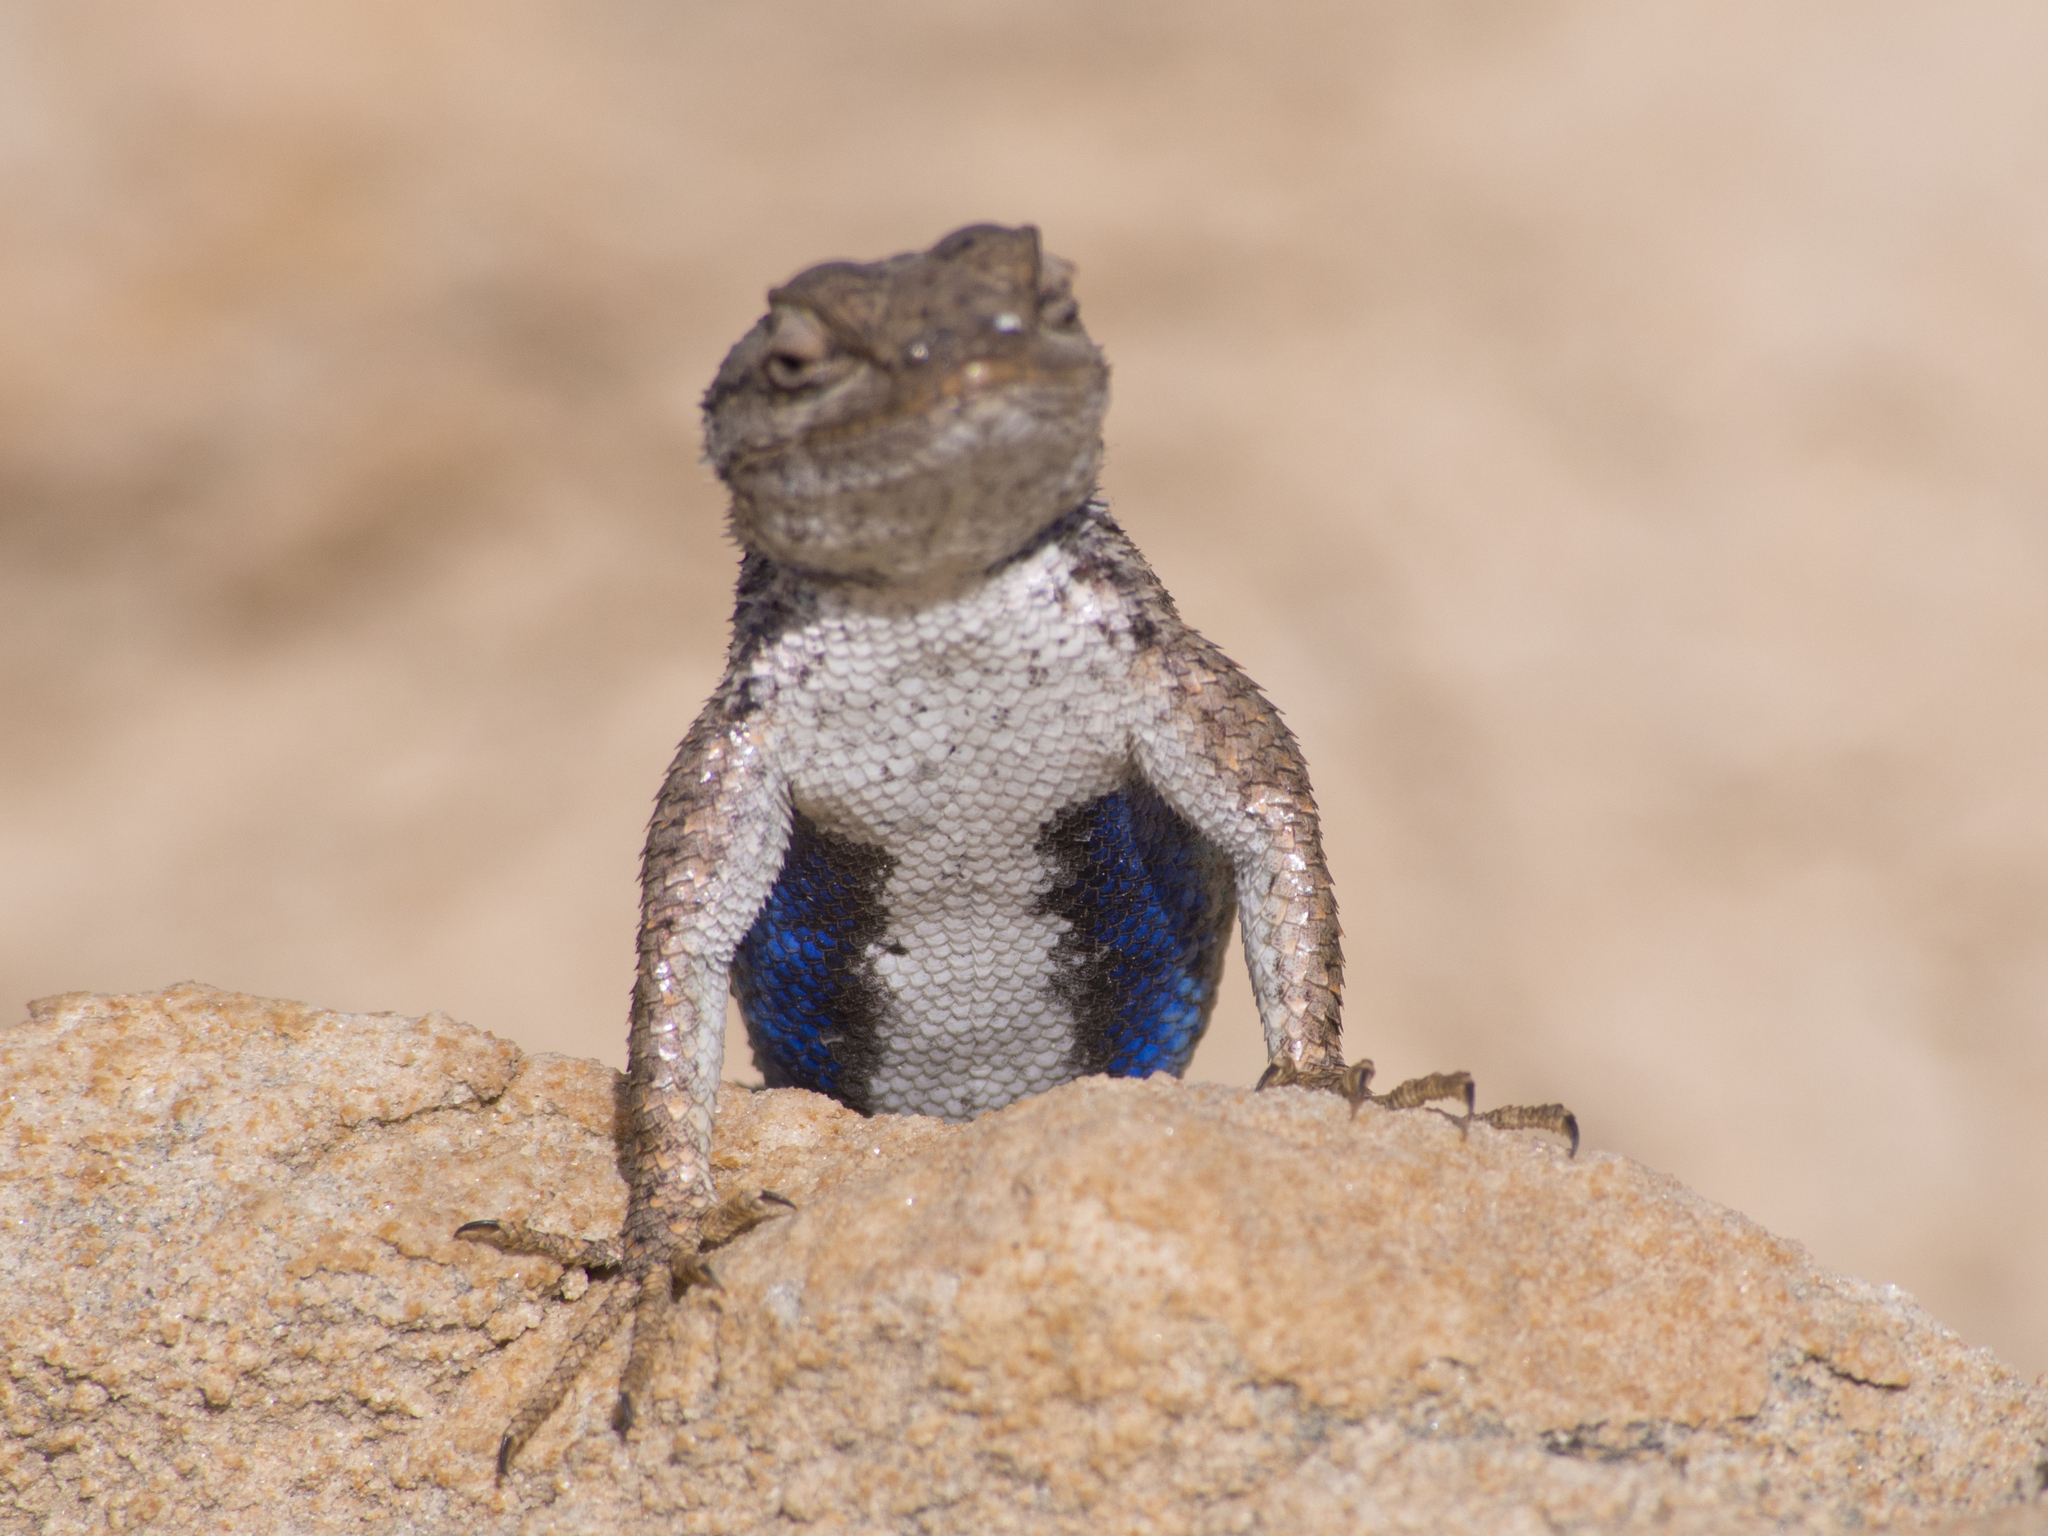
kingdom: Animalia
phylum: Chordata
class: Squamata
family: Phrynosomatidae
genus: Sceloporus
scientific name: Sceloporus tristichus
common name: Plateau fence lizard
